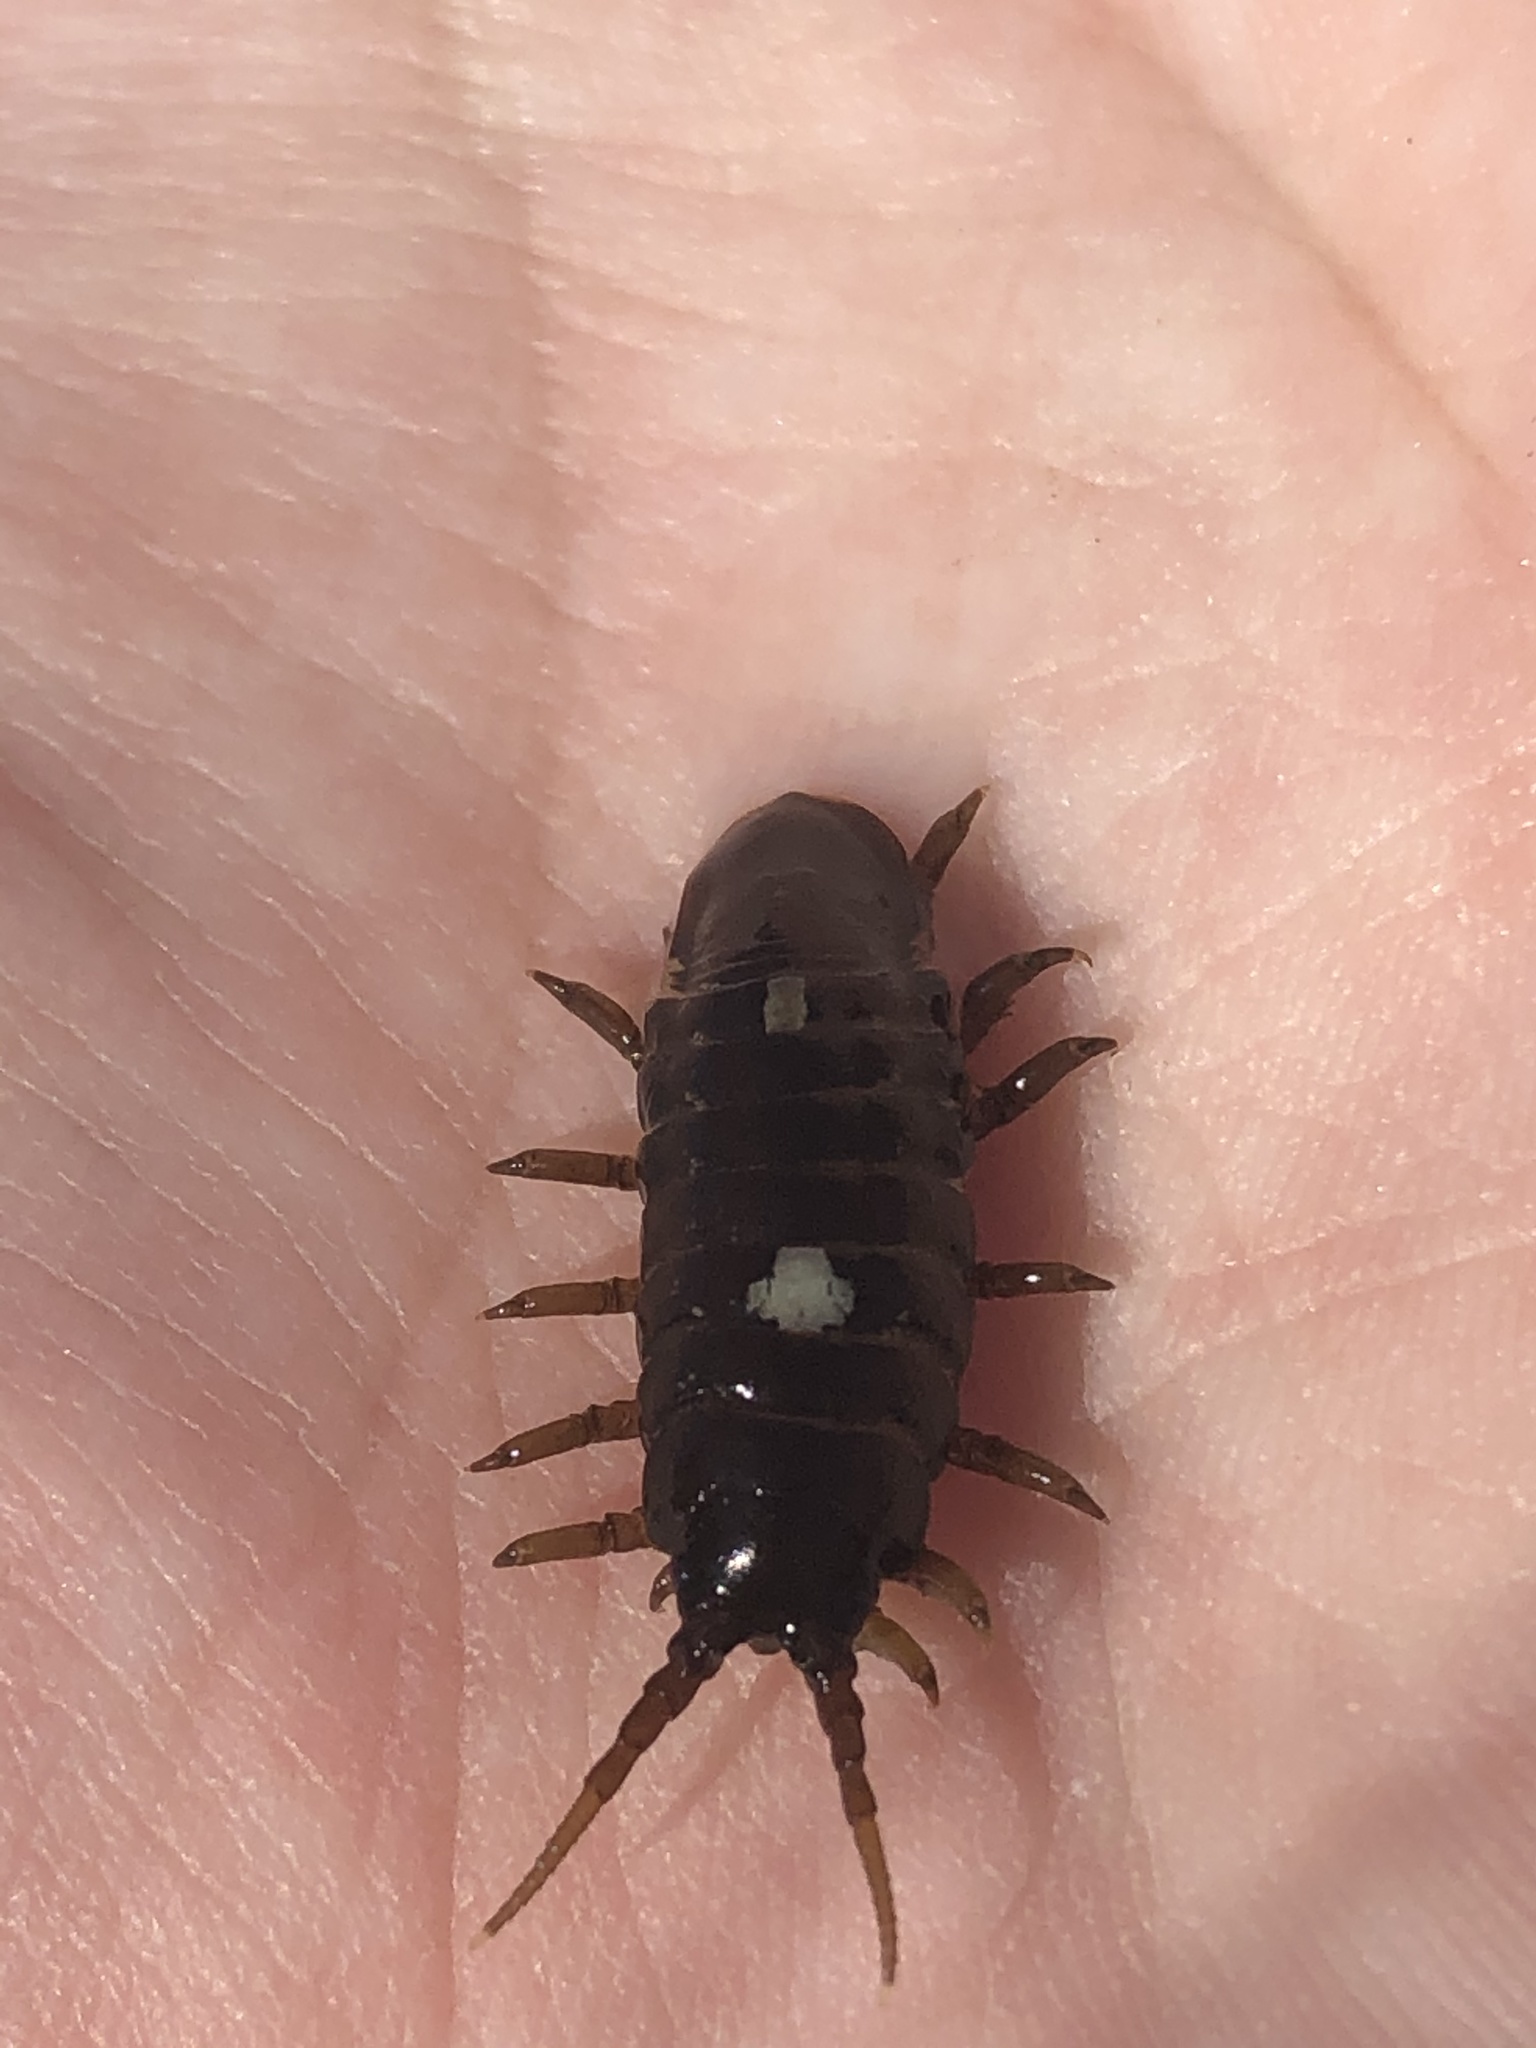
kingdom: Animalia
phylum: Arthropoda
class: Malacostraca
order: Isopoda
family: Idoteidae
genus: Pentidotea
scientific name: Pentidotea wosnesenskii
